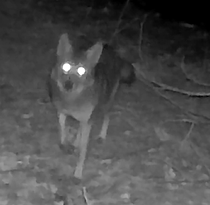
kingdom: Animalia
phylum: Chordata
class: Mammalia
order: Carnivora
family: Canidae
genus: Canis
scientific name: Canis latrans
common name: Coyote
